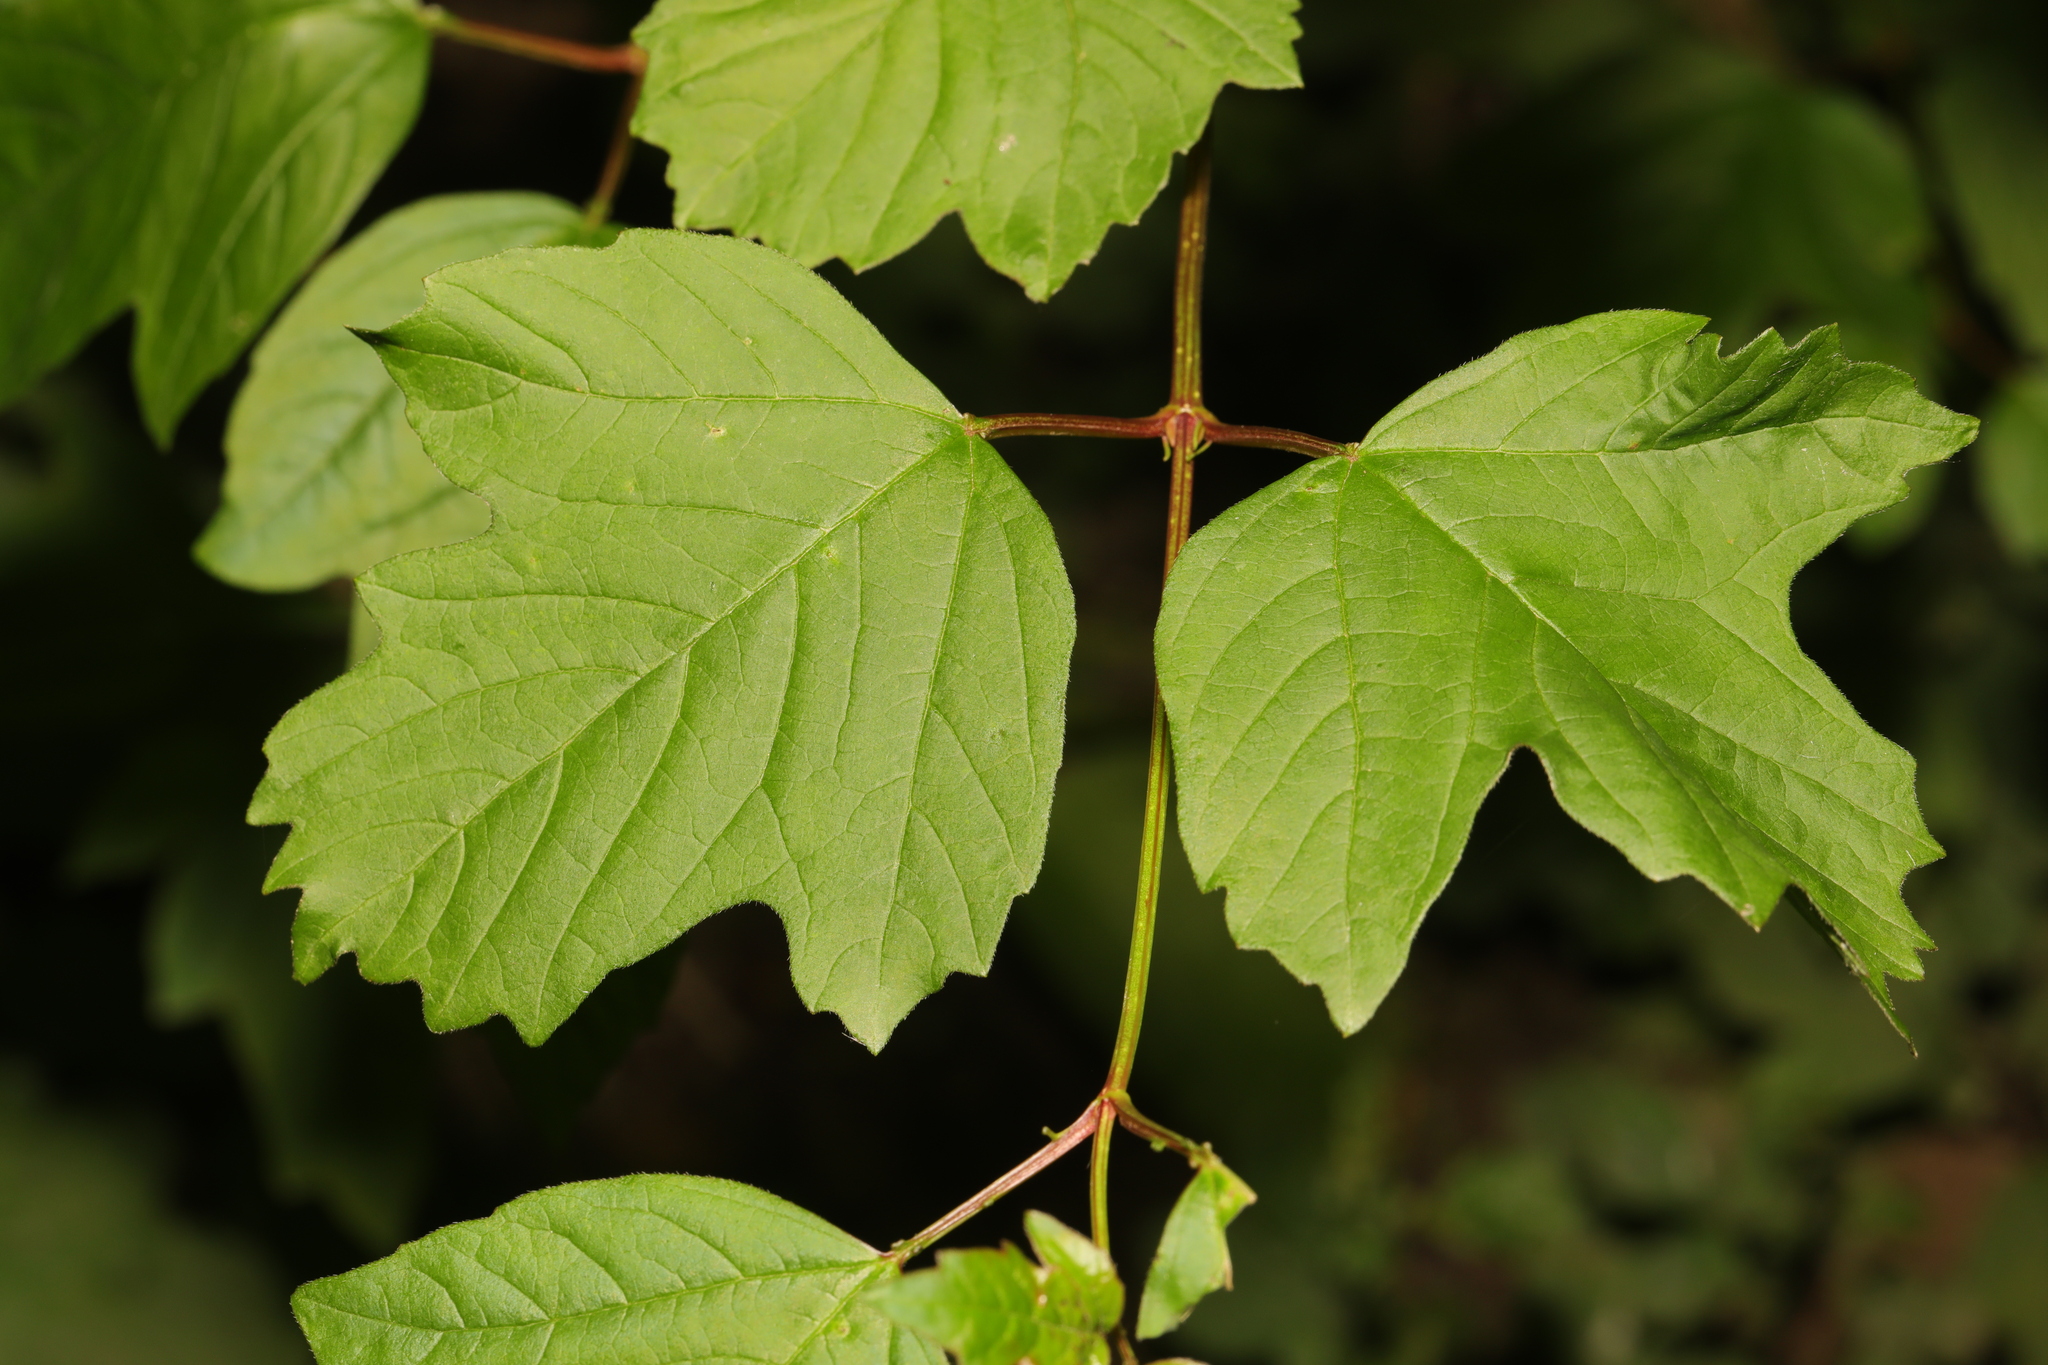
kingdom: Plantae
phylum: Tracheophyta
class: Magnoliopsida
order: Dipsacales
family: Viburnaceae
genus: Viburnum
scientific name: Viburnum opulus
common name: Guelder-rose
